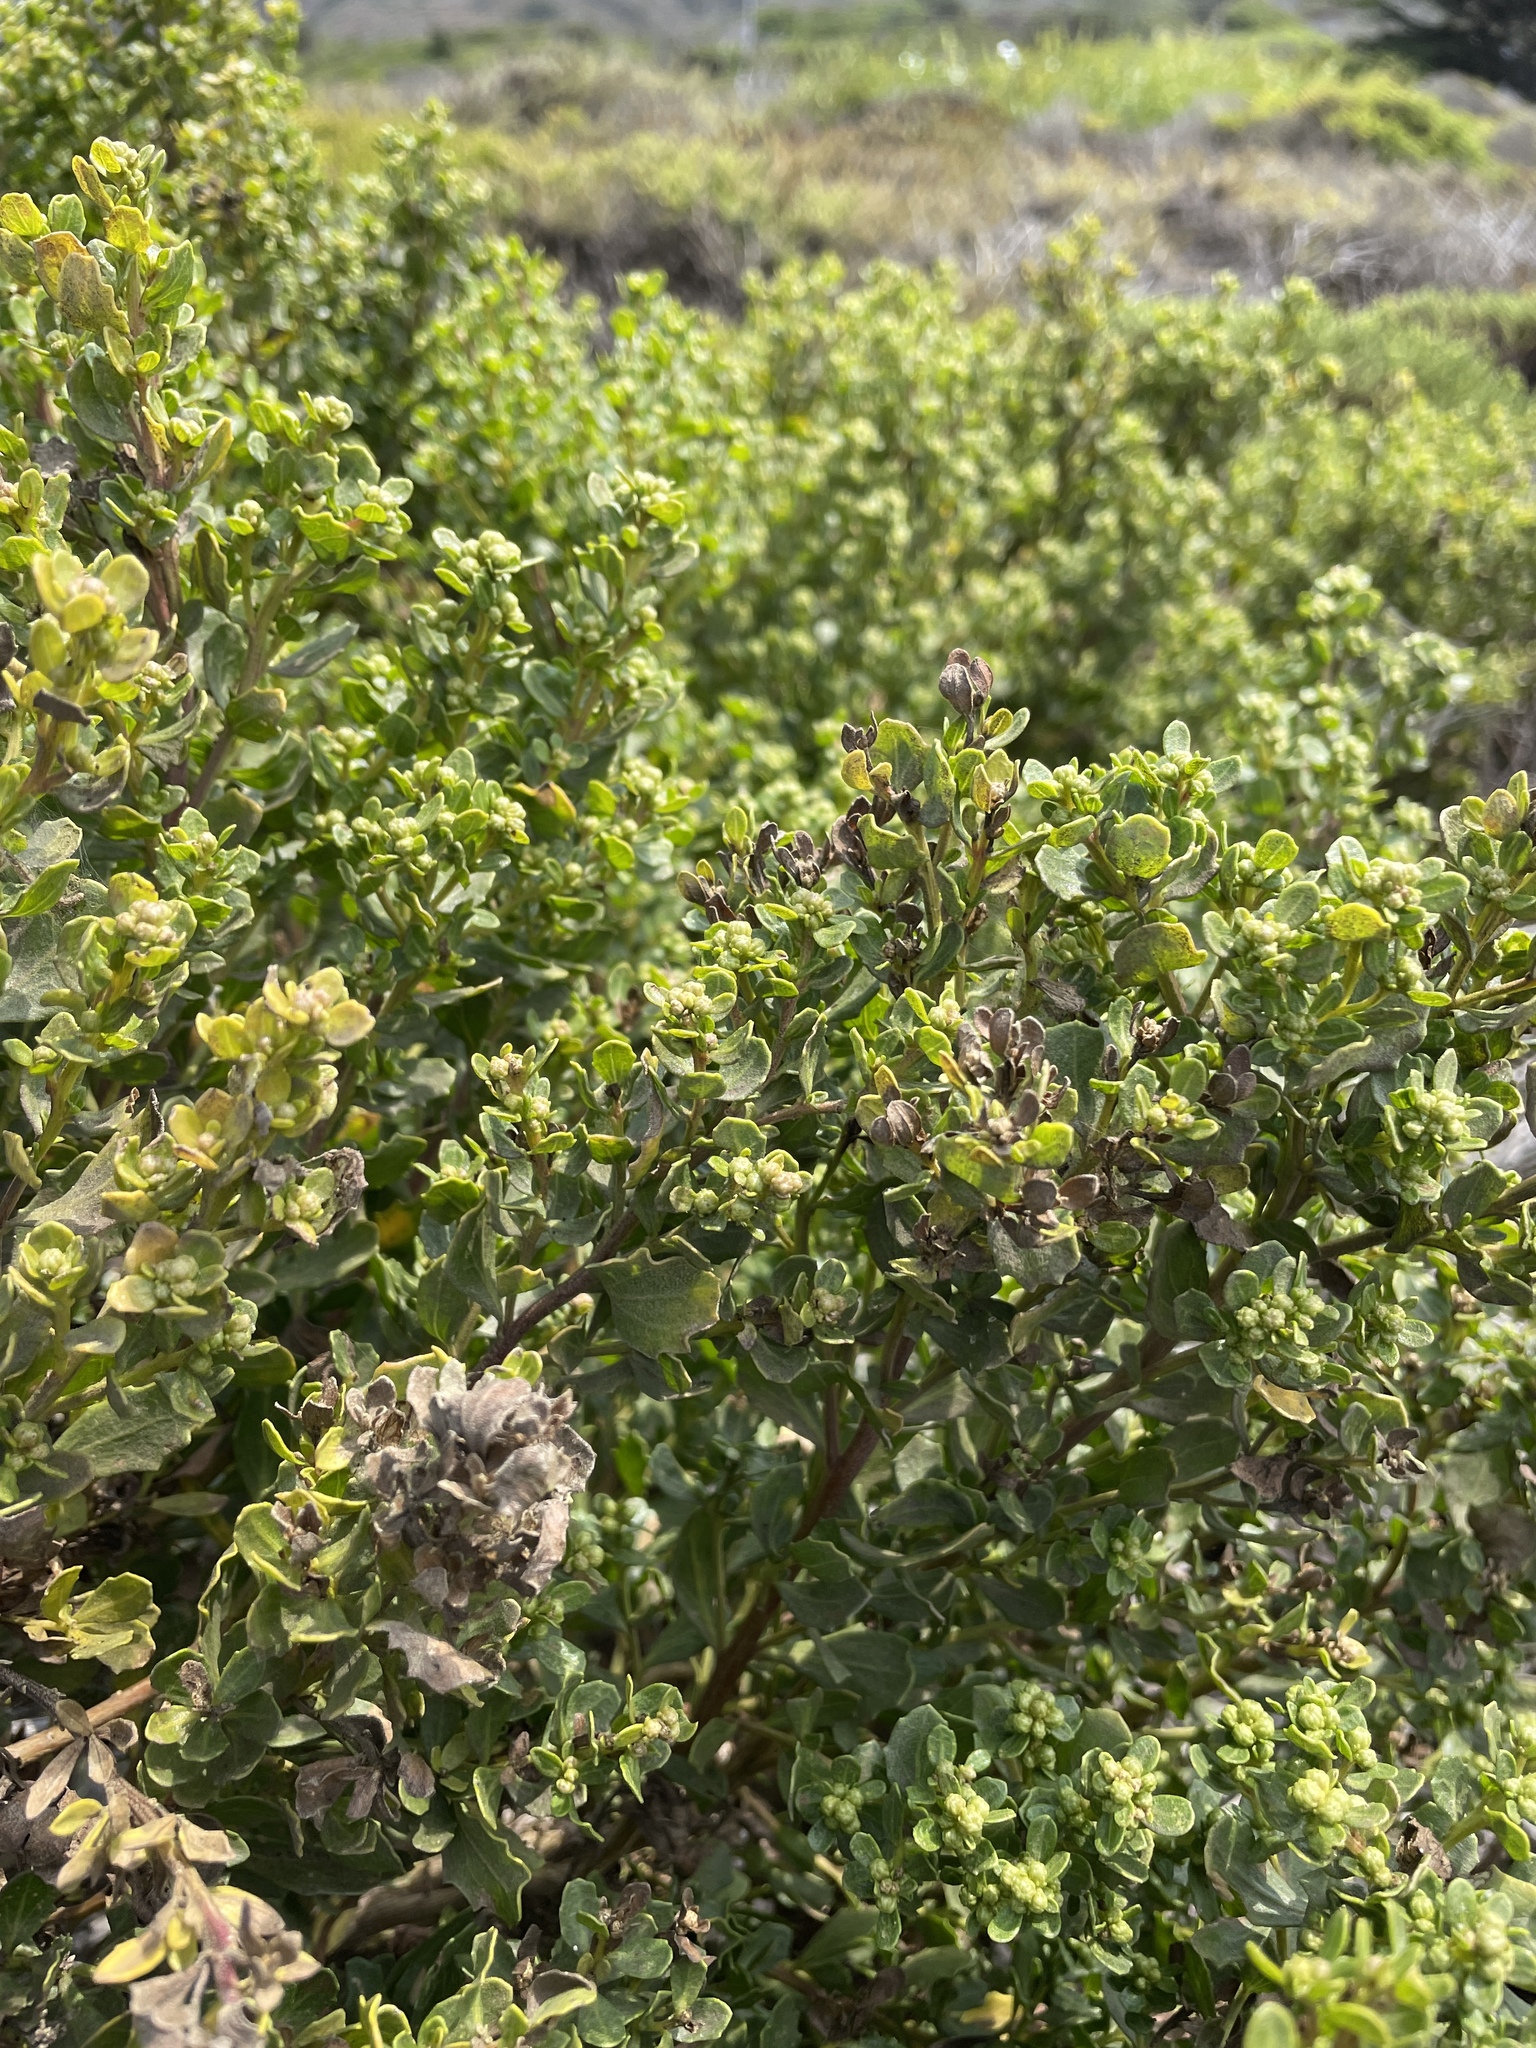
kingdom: Plantae
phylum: Tracheophyta
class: Magnoliopsida
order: Asterales
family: Asteraceae
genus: Baccharis
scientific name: Baccharis pilularis
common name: Coyotebrush
